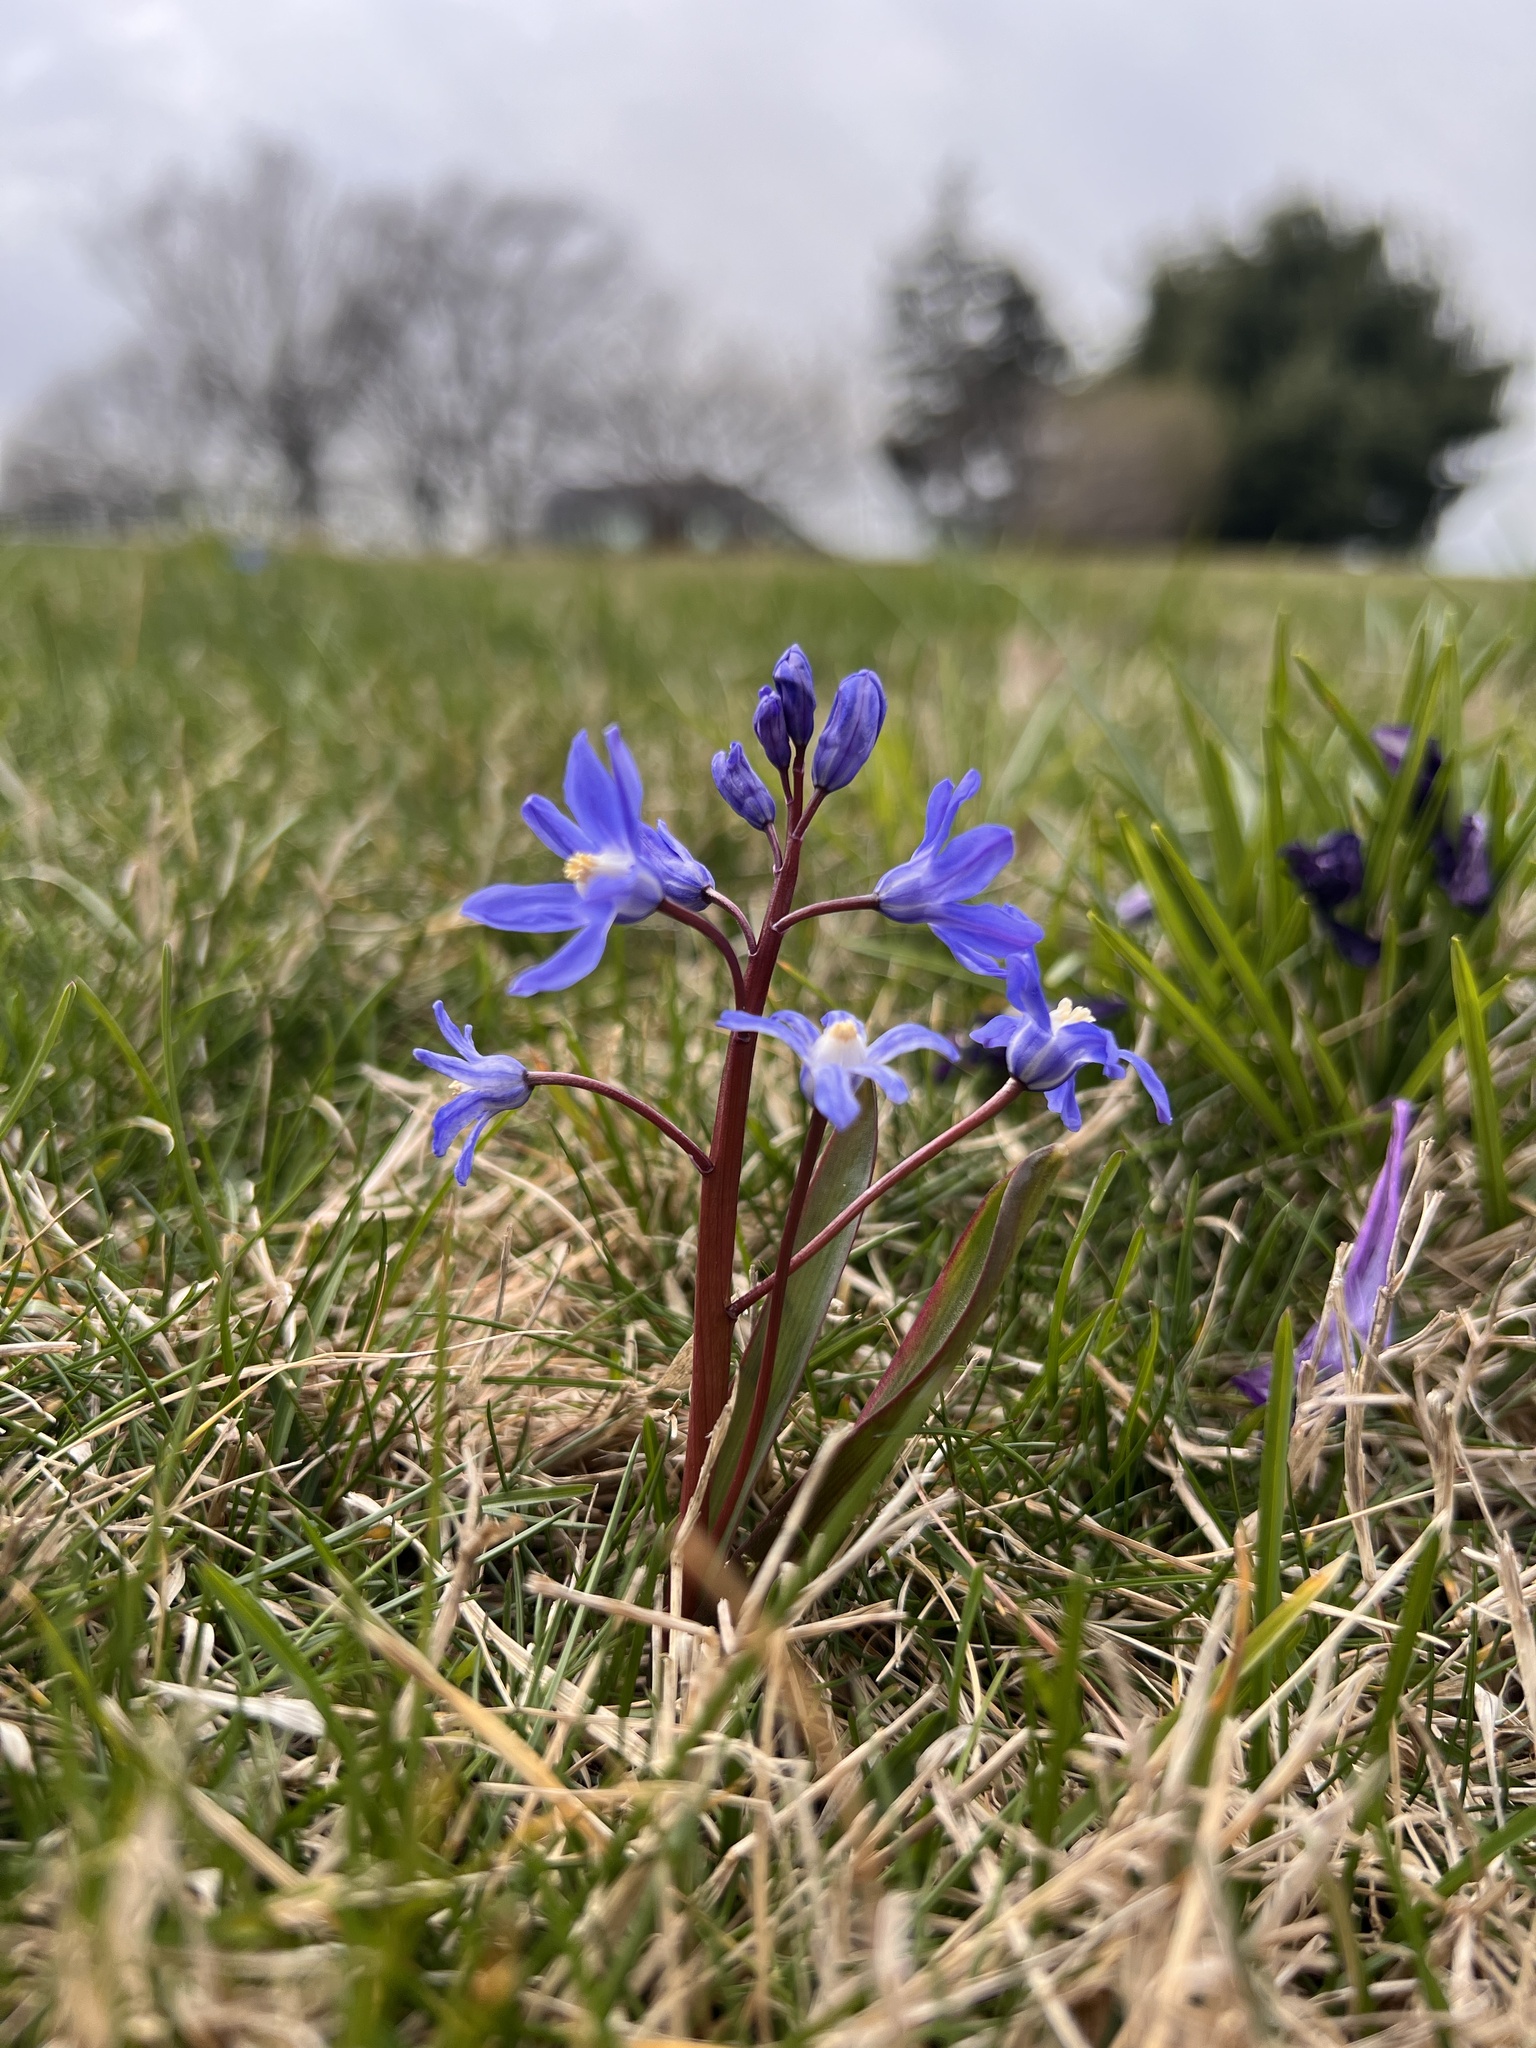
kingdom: Plantae
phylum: Tracheophyta
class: Liliopsida
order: Asparagales
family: Asparagaceae
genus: Scilla
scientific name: Scilla forbesii
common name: Glory-of-the-snow
